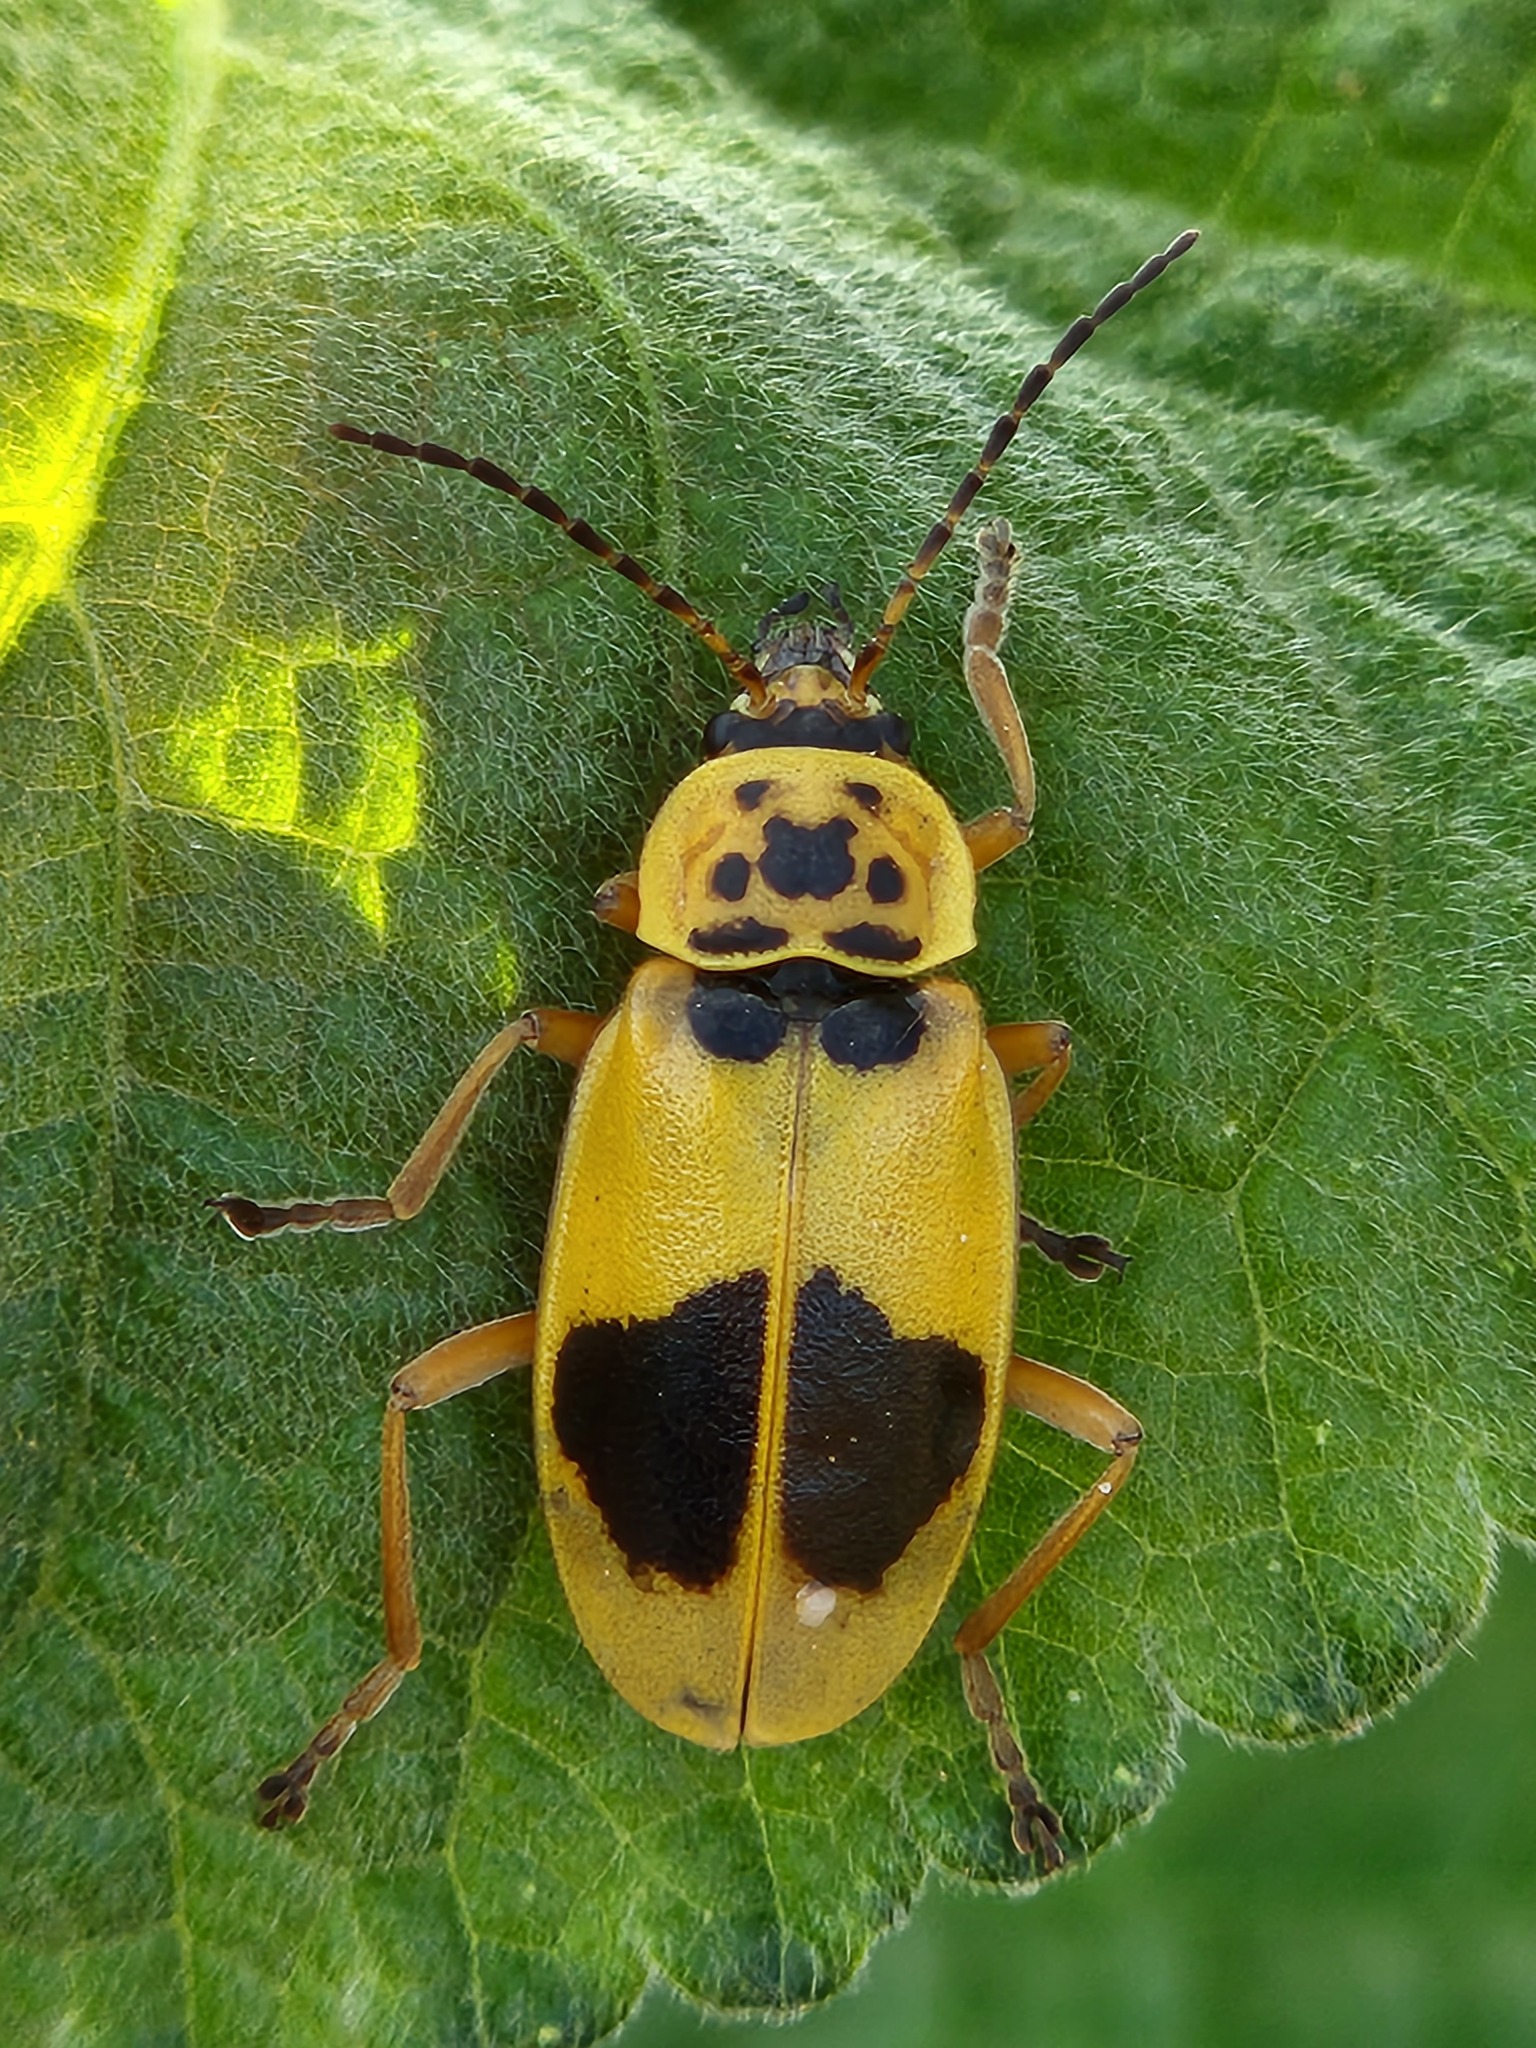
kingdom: Animalia
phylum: Arthropoda
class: Insecta
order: Coleoptera
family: Cantharidae
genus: Chauliognathus
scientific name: Chauliognathus
